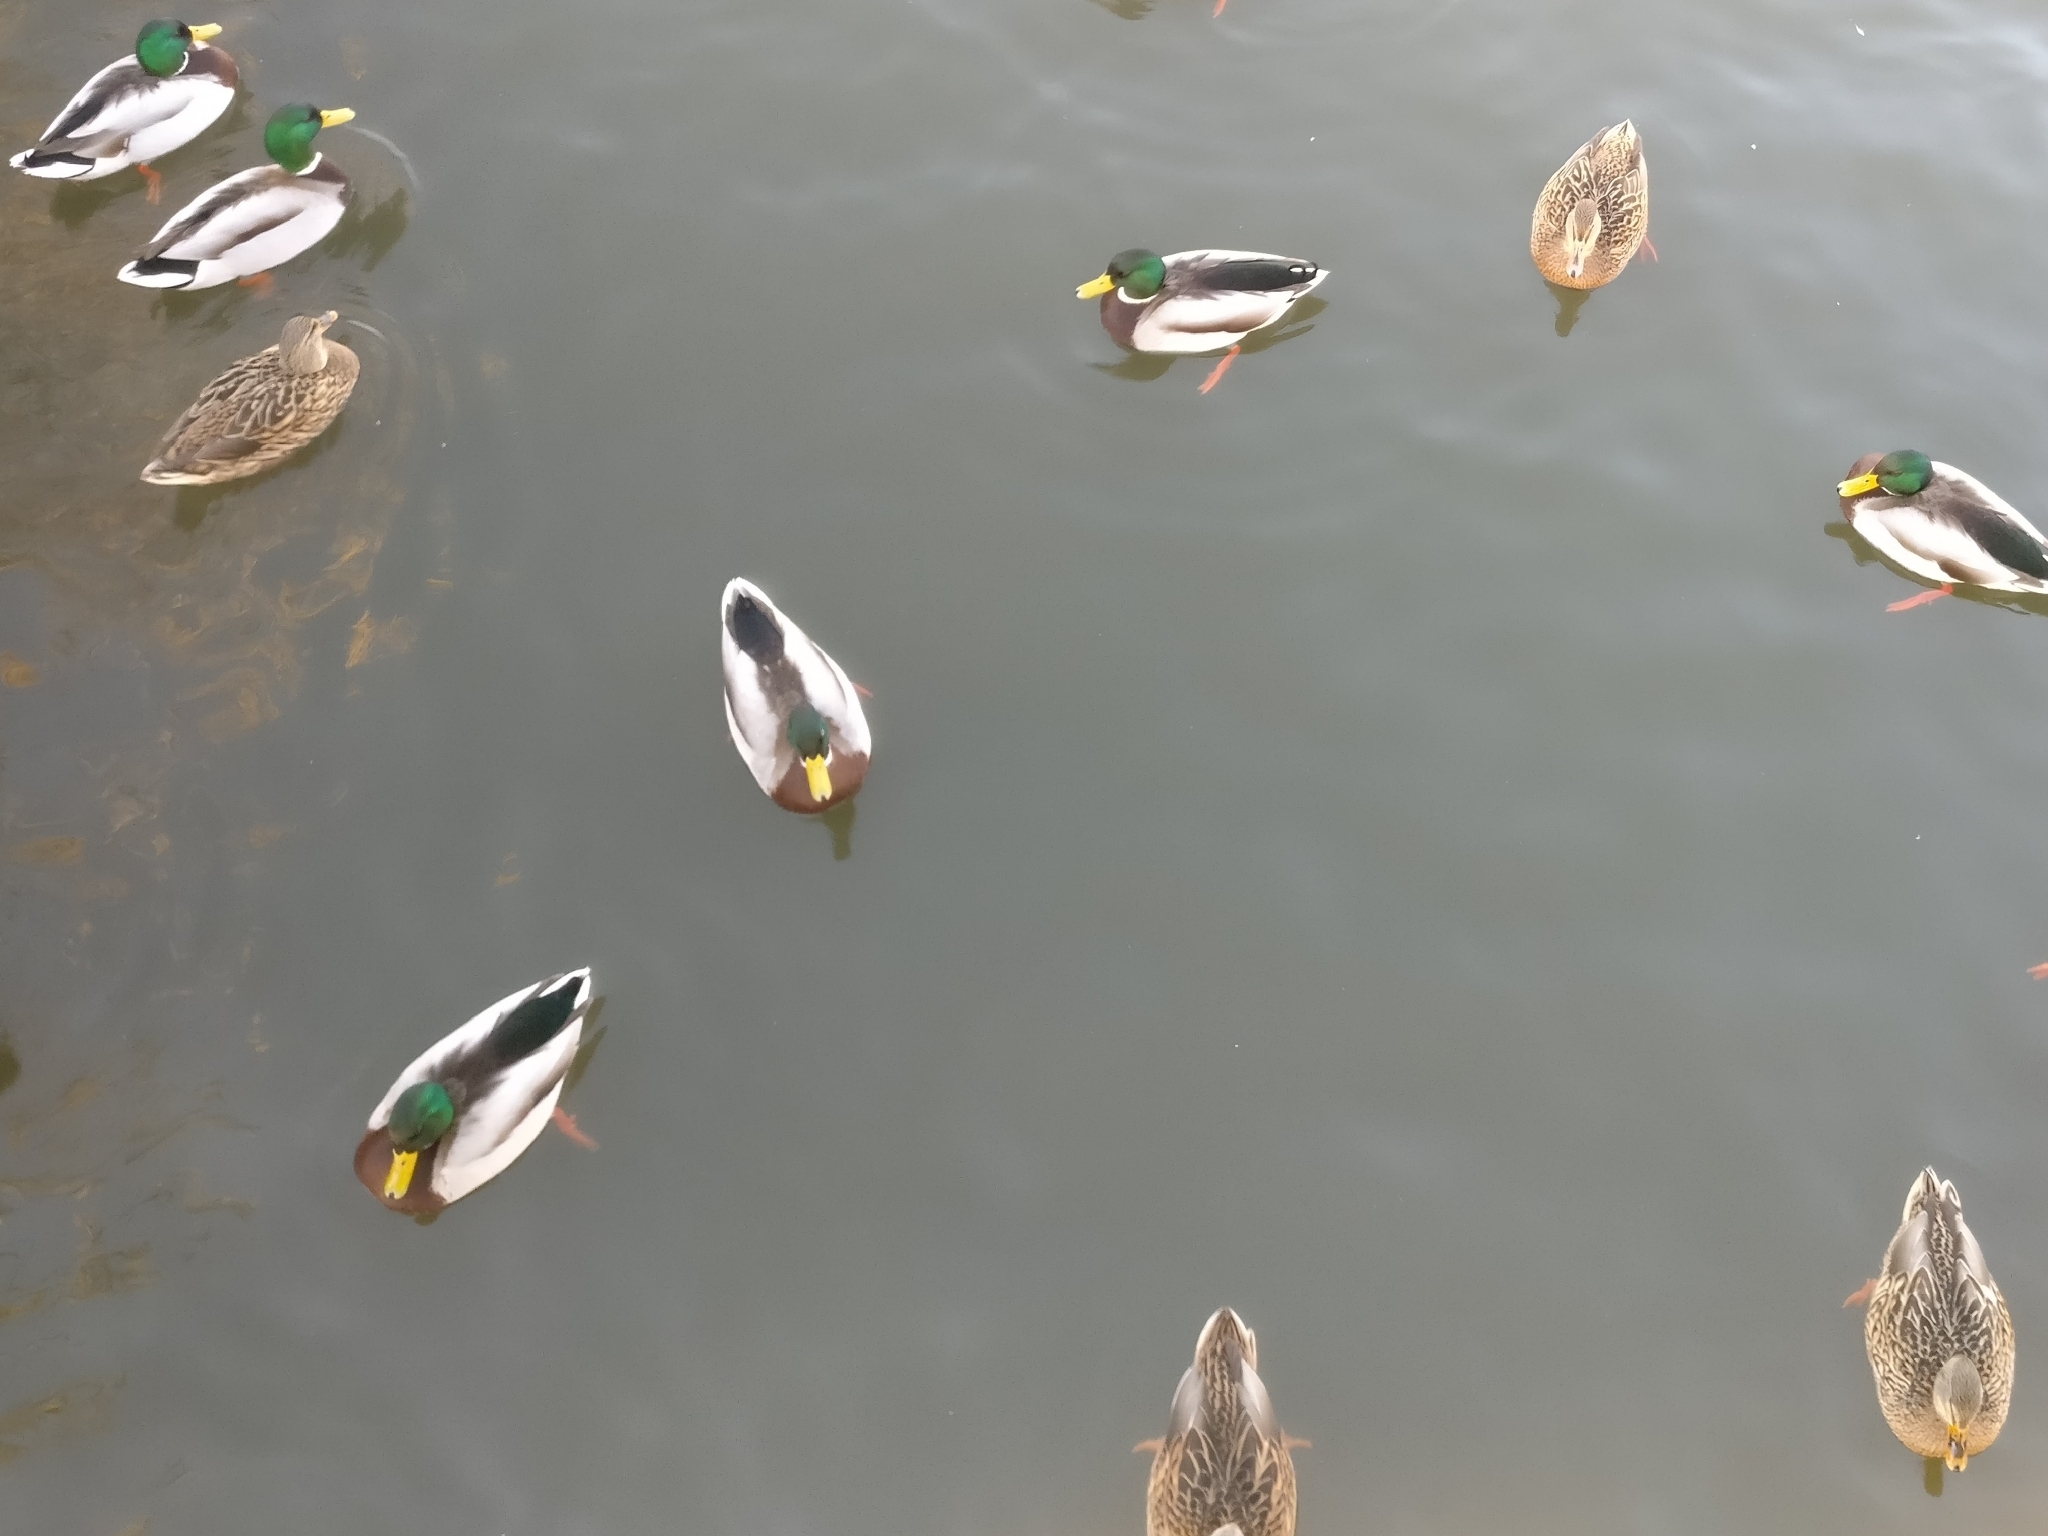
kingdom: Animalia
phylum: Chordata
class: Aves
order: Anseriformes
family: Anatidae
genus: Anas
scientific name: Anas platyrhynchos
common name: Mallard
